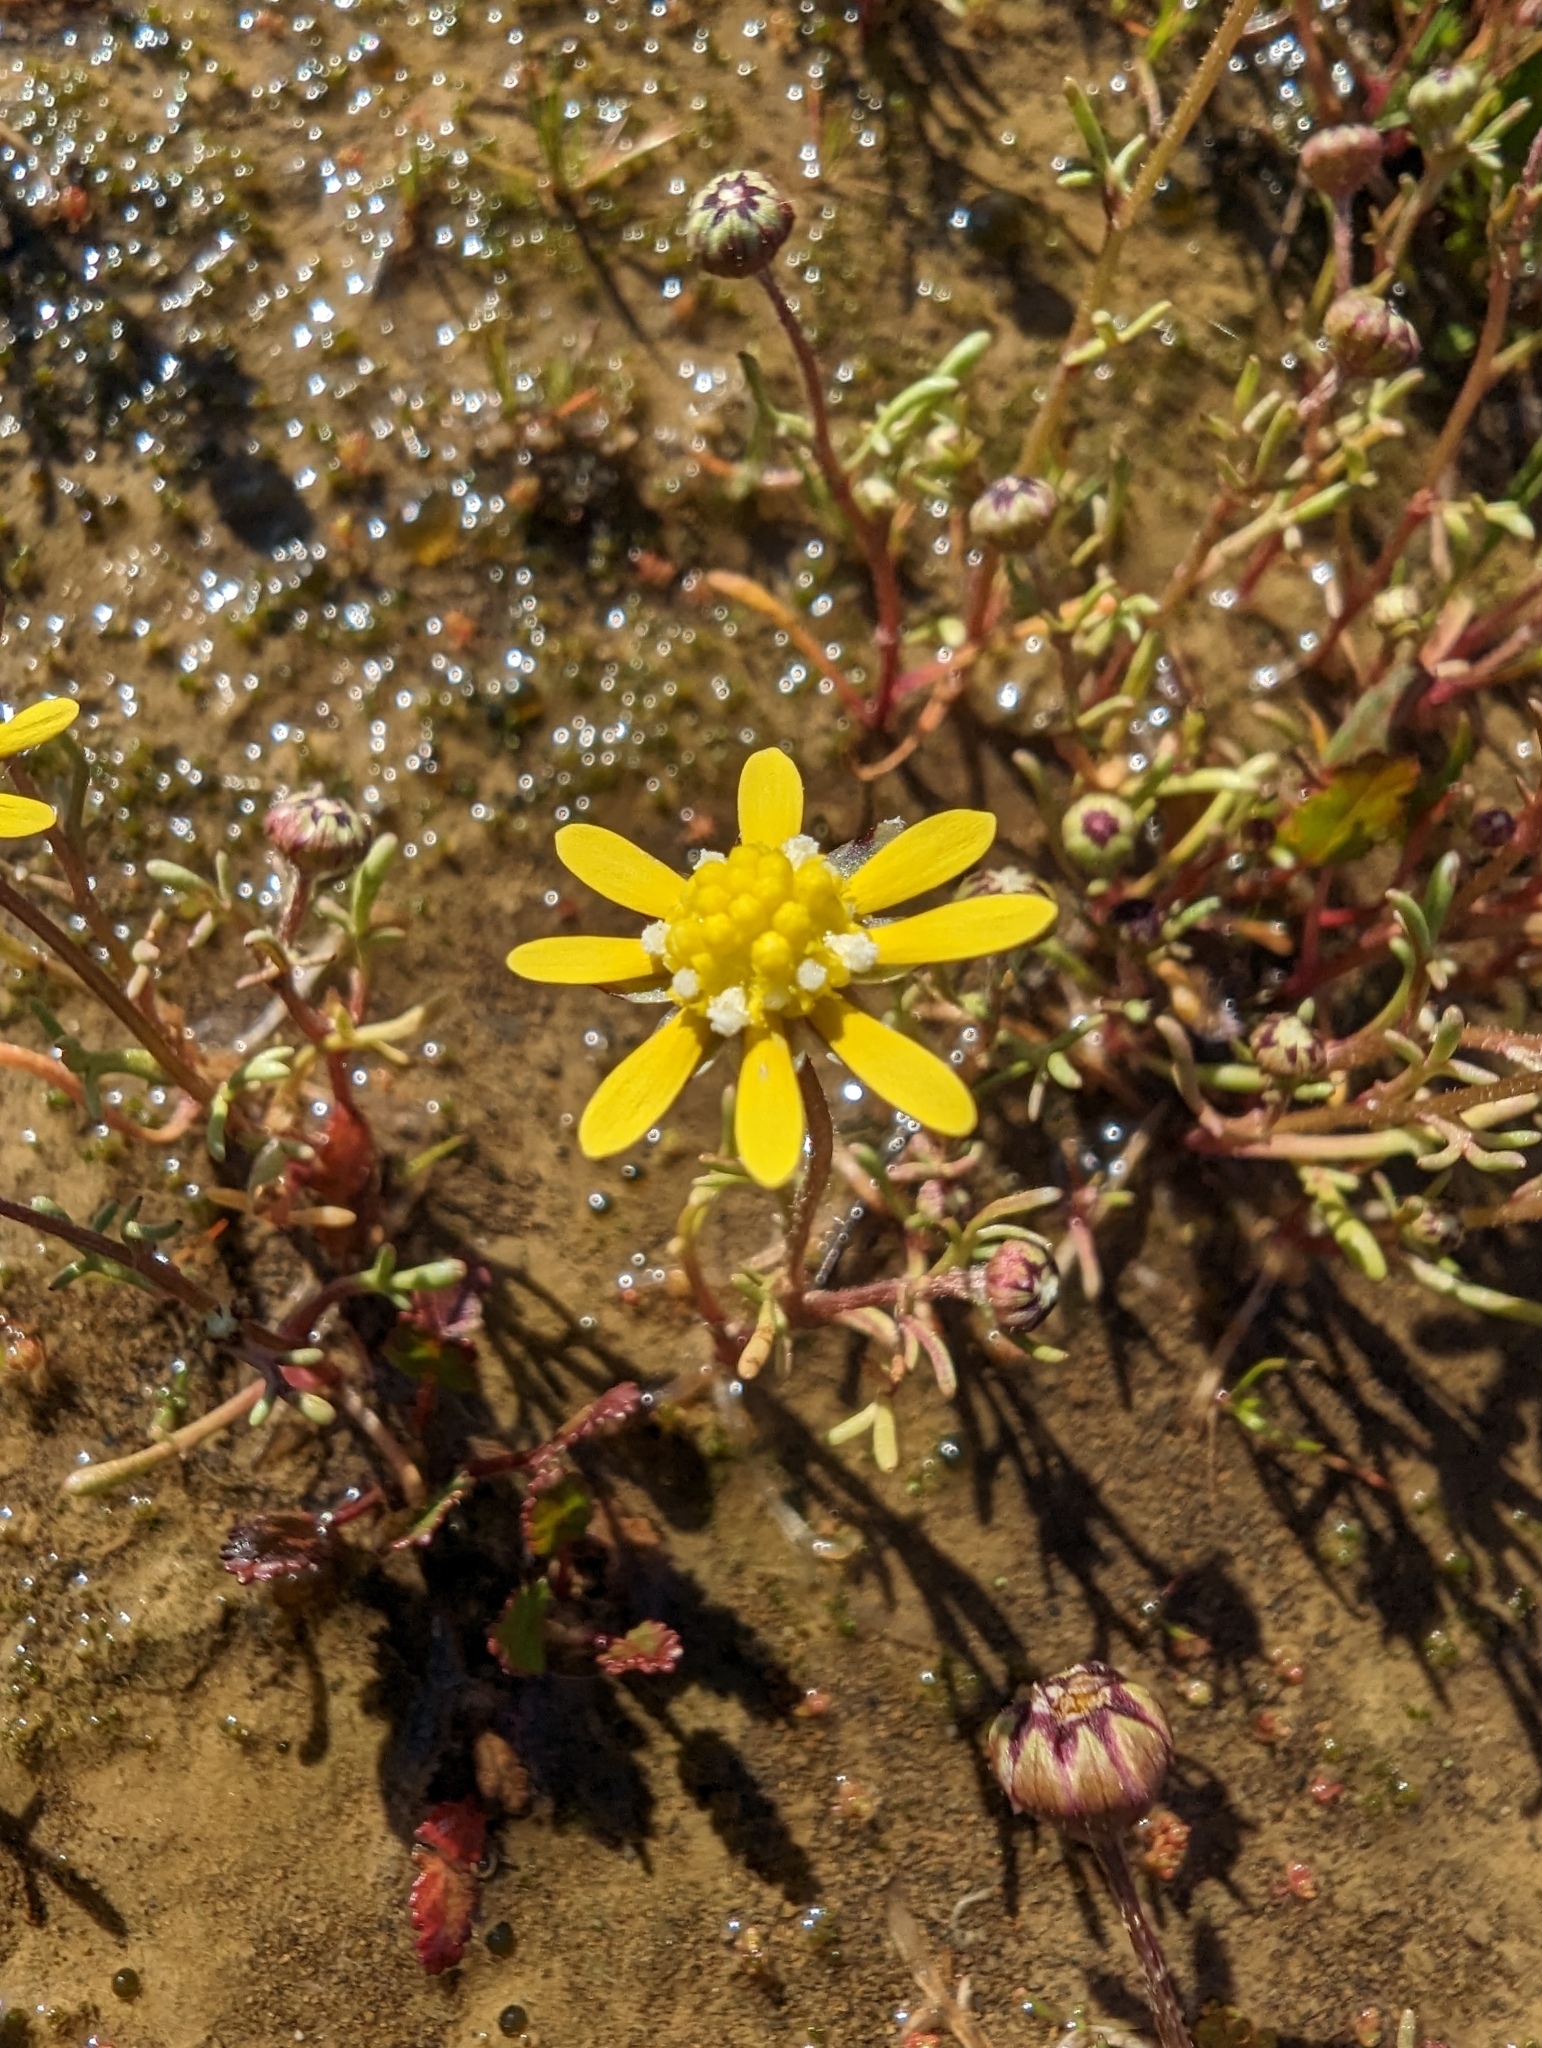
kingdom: Plantae
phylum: Tracheophyta
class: Magnoliopsida
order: Asterales
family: Asteraceae
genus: Blennosperma
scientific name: Blennosperma nanum
